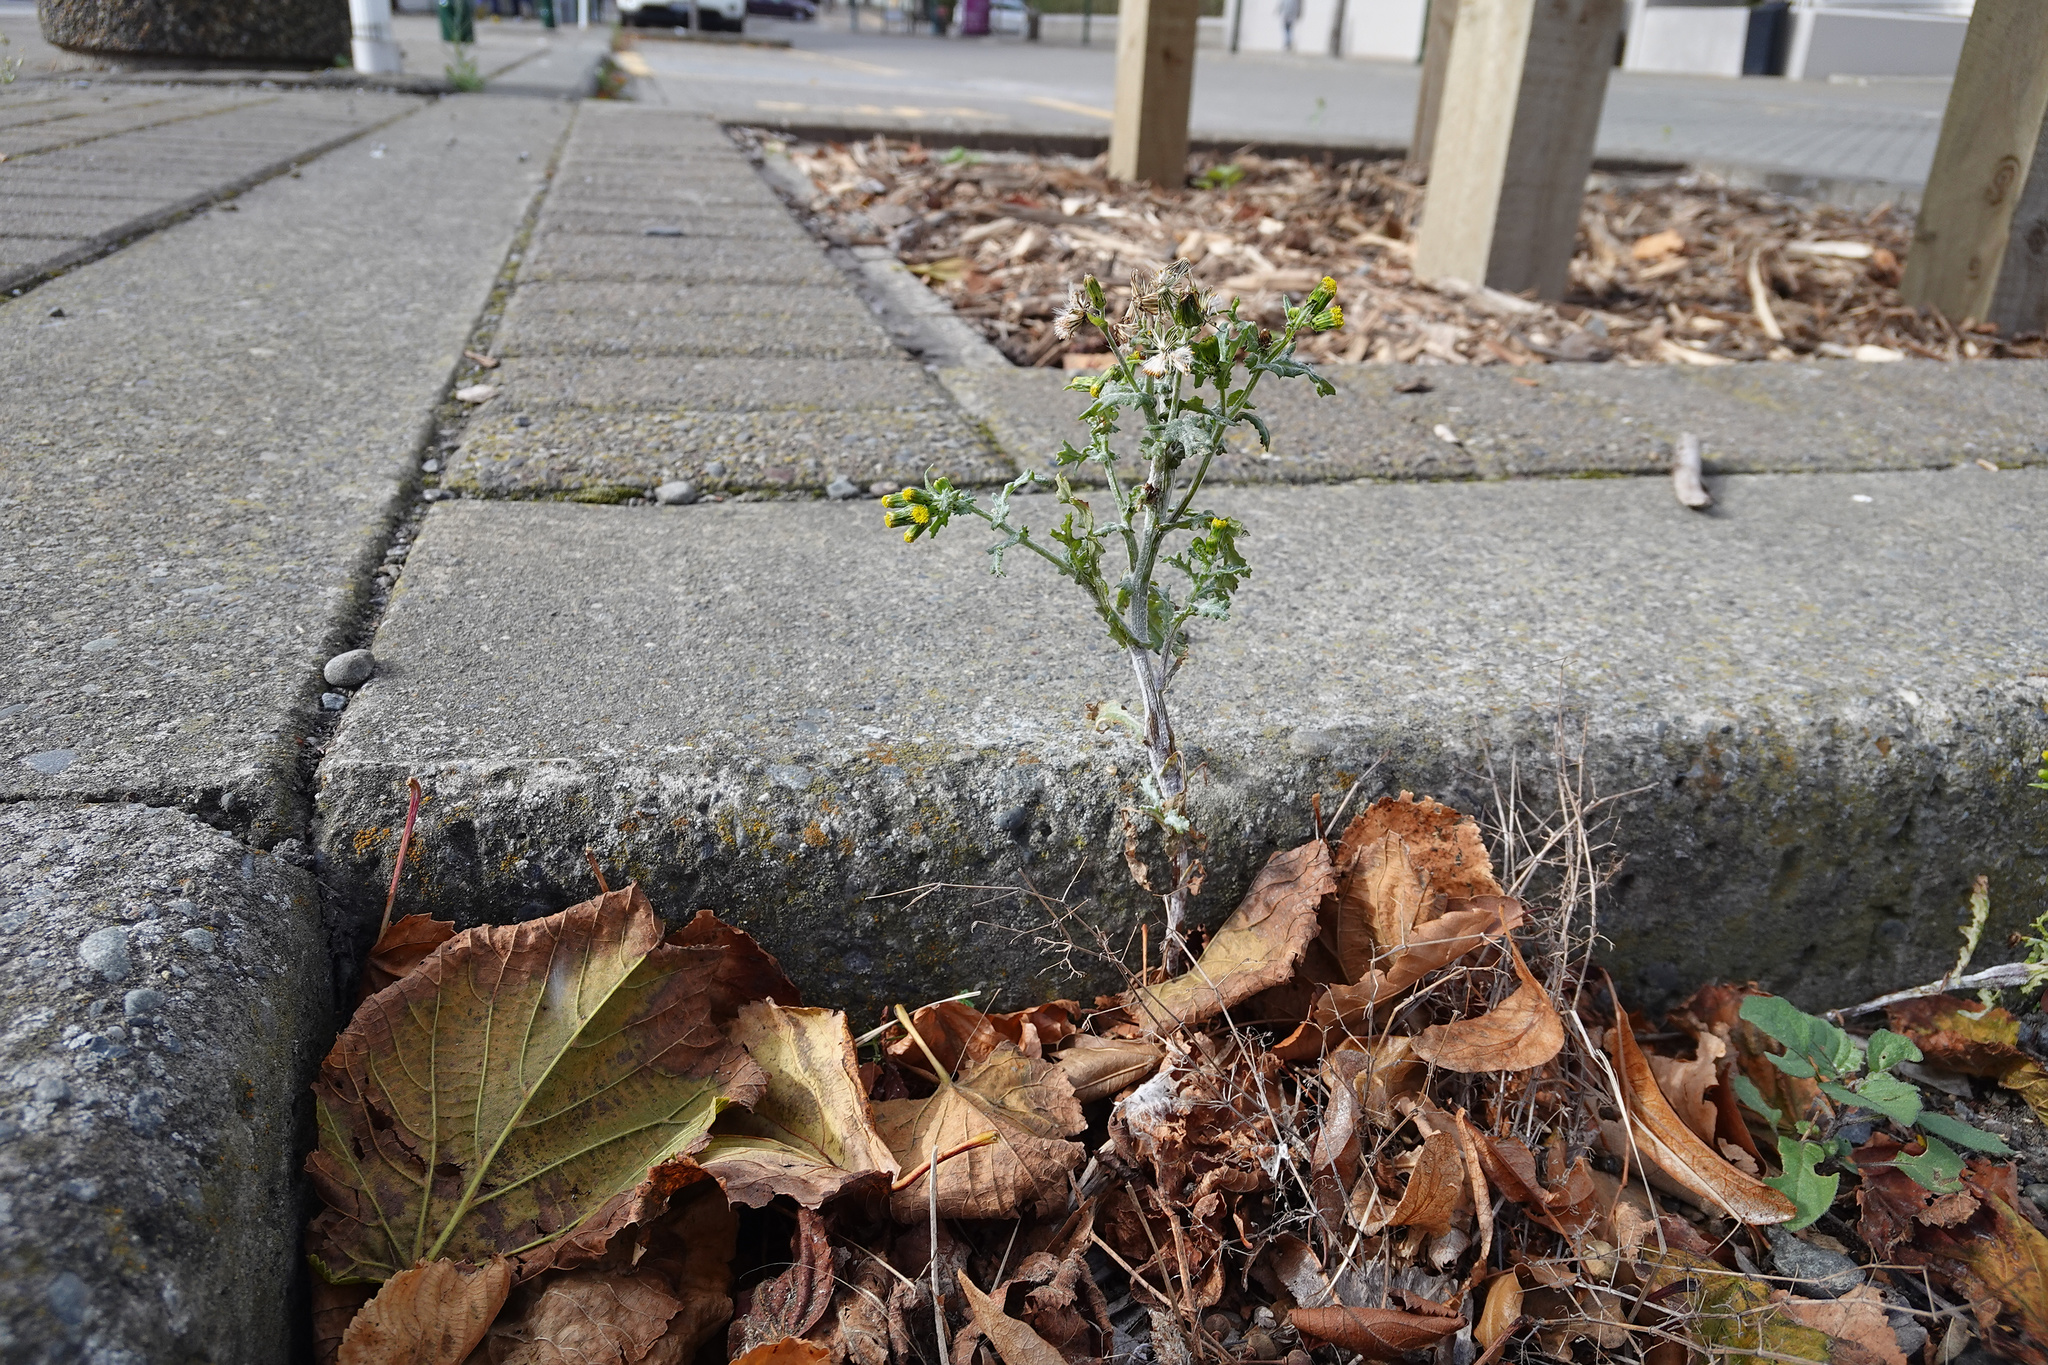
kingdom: Plantae
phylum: Tracheophyta
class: Magnoliopsida
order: Asterales
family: Asteraceae
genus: Senecio
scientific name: Senecio vulgaris
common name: Old-man-in-the-spring
